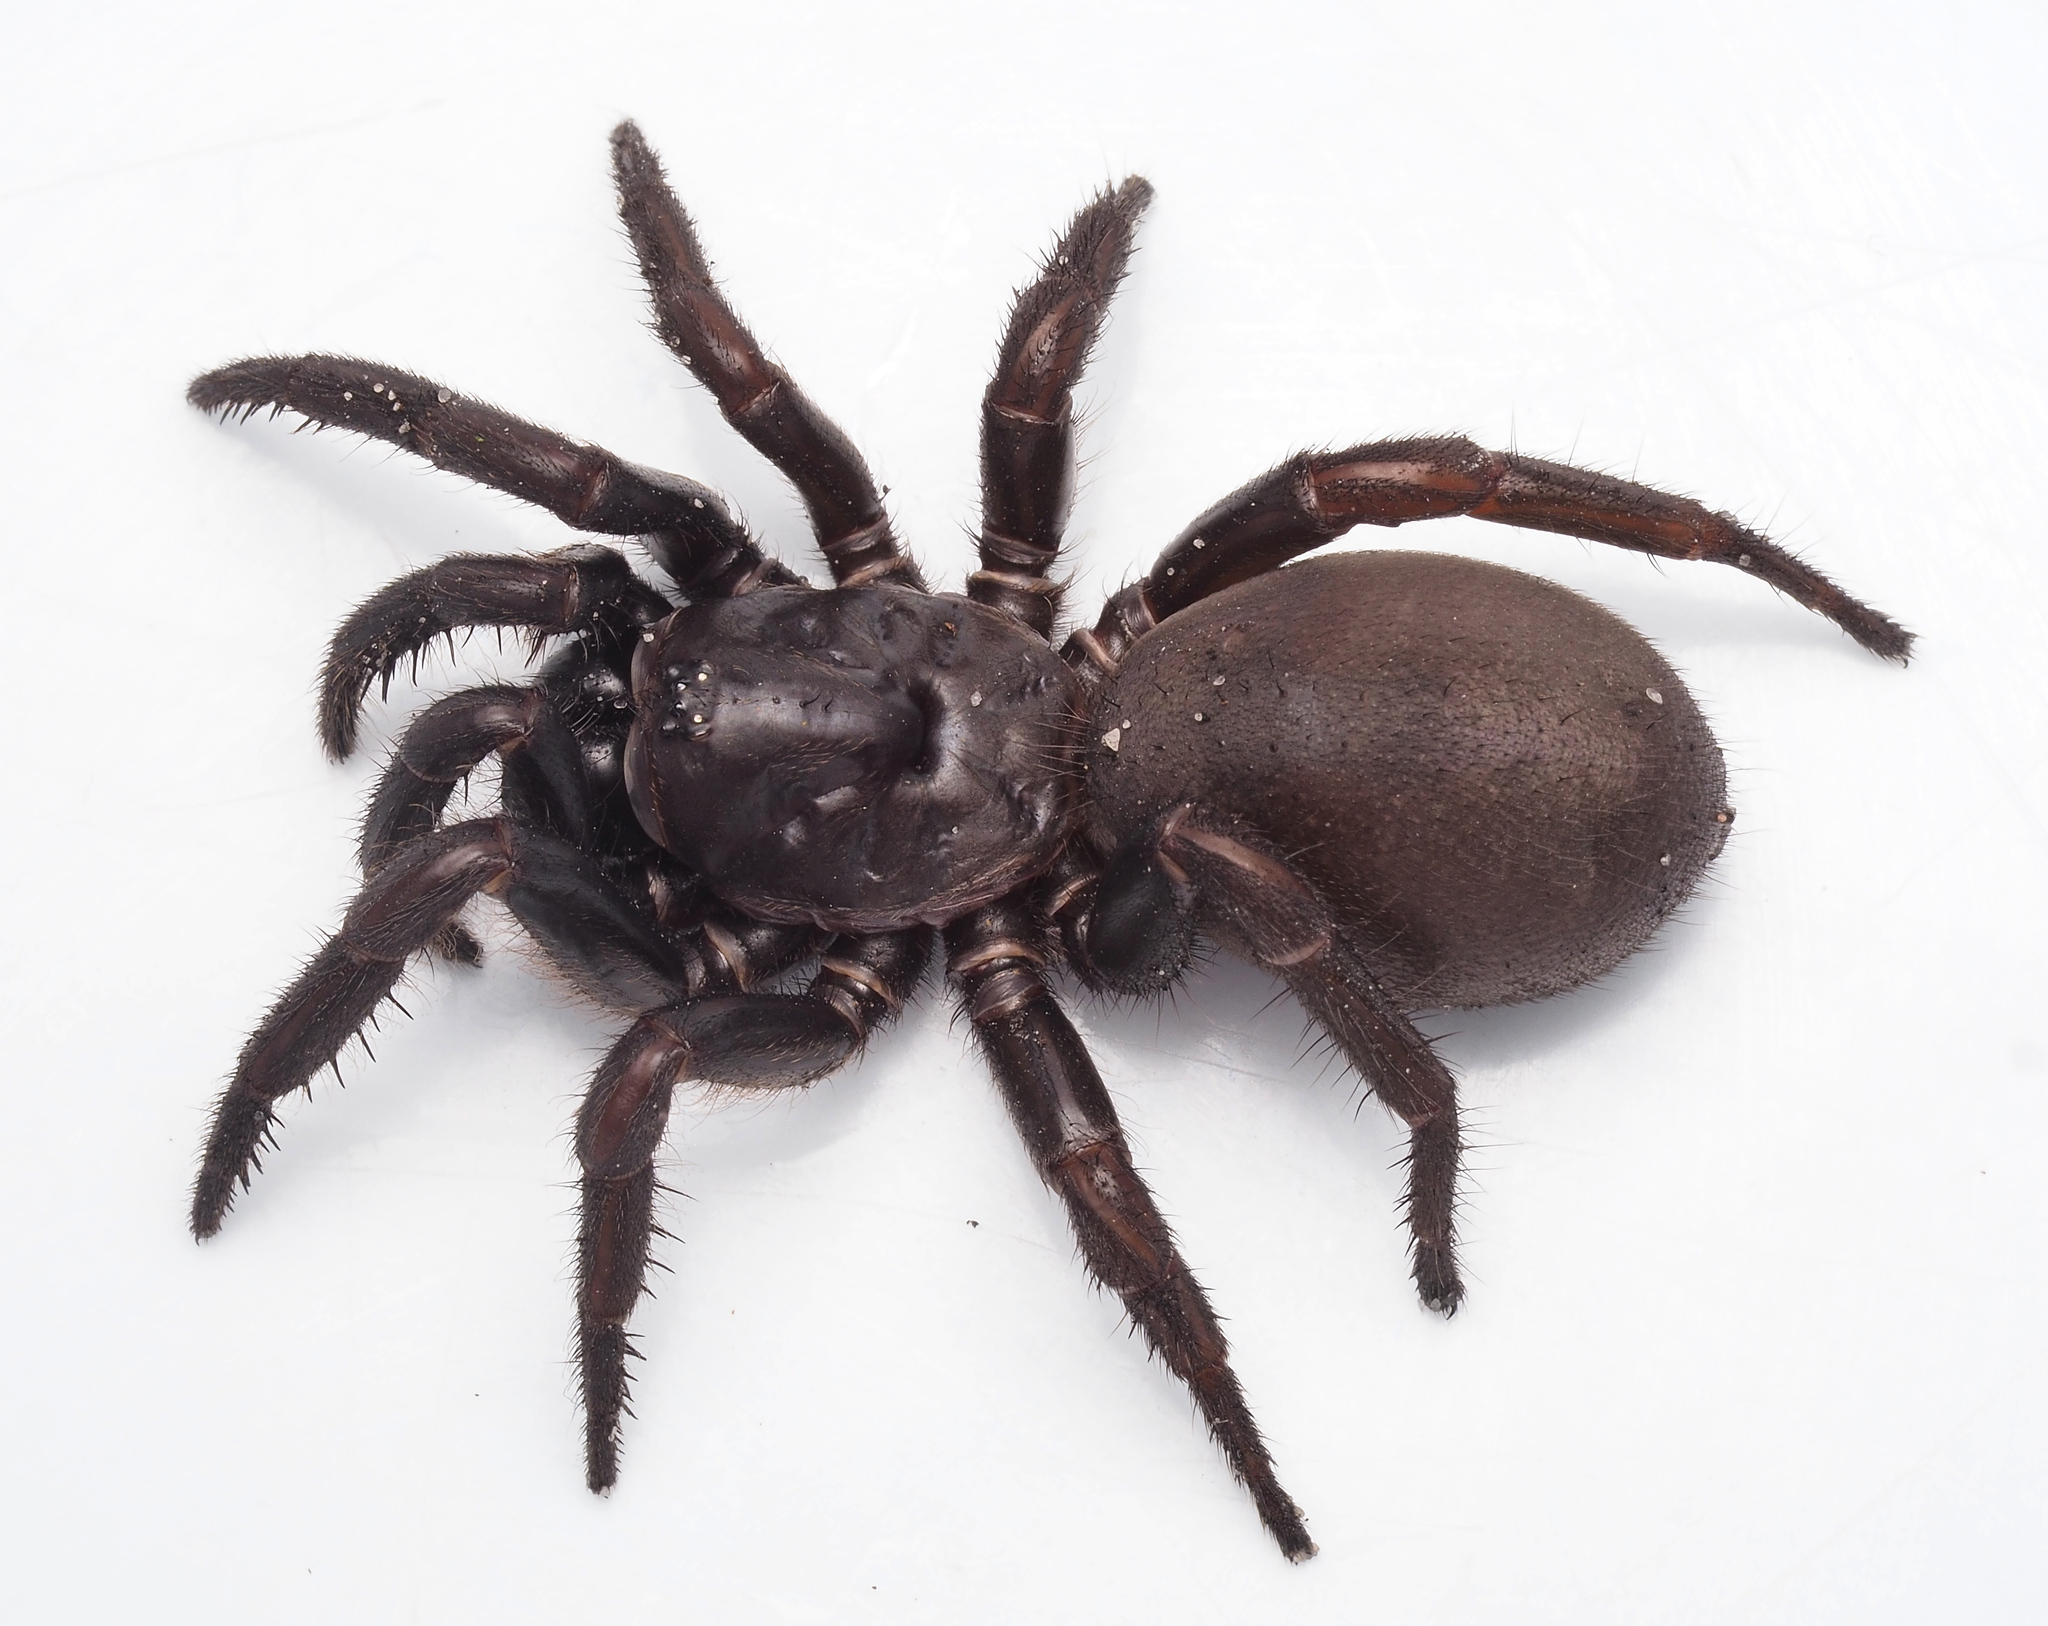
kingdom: Animalia
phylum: Arthropoda
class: Arachnida
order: Araneae
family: Idiopidae
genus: Cataxia
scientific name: Cataxia
